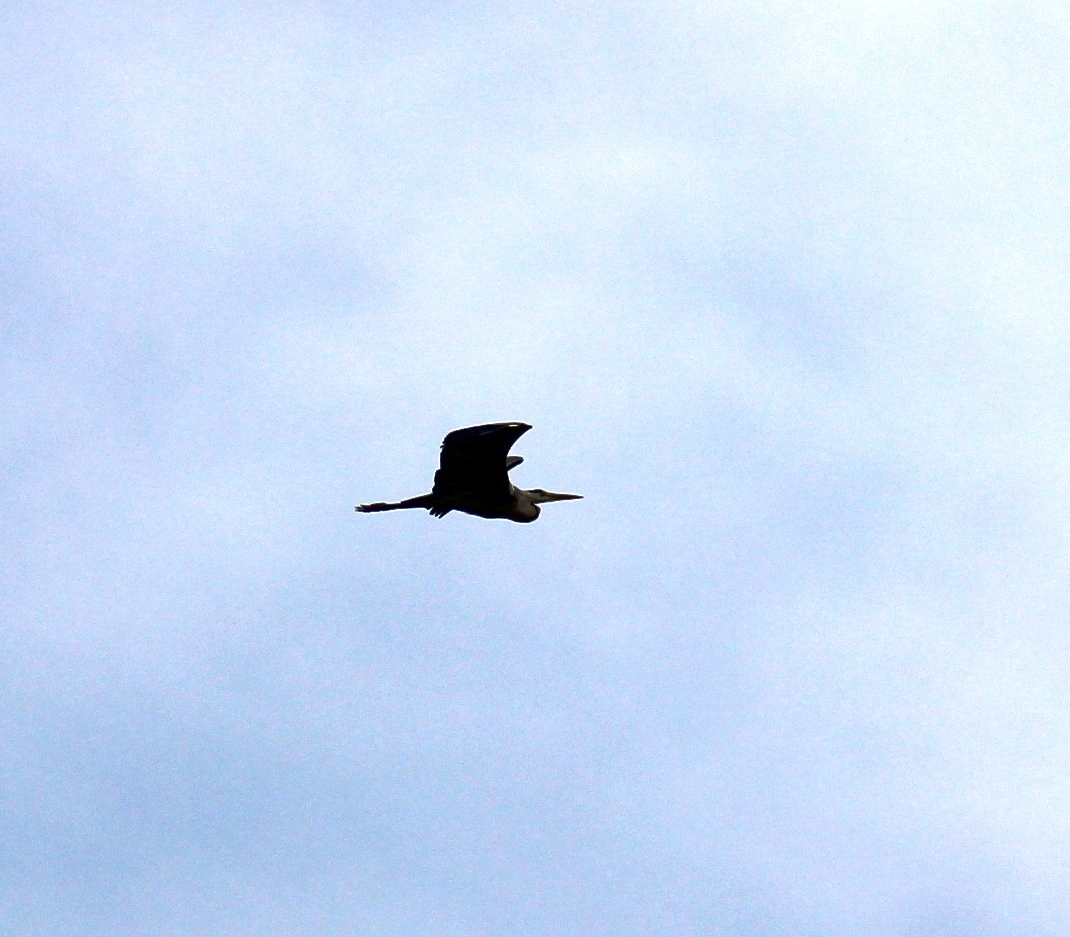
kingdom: Animalia
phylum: Chordata
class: Aves
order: Pelecaniformes
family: Ardeidae
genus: Ardea
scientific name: Ardea cinerea
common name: Grey heron
